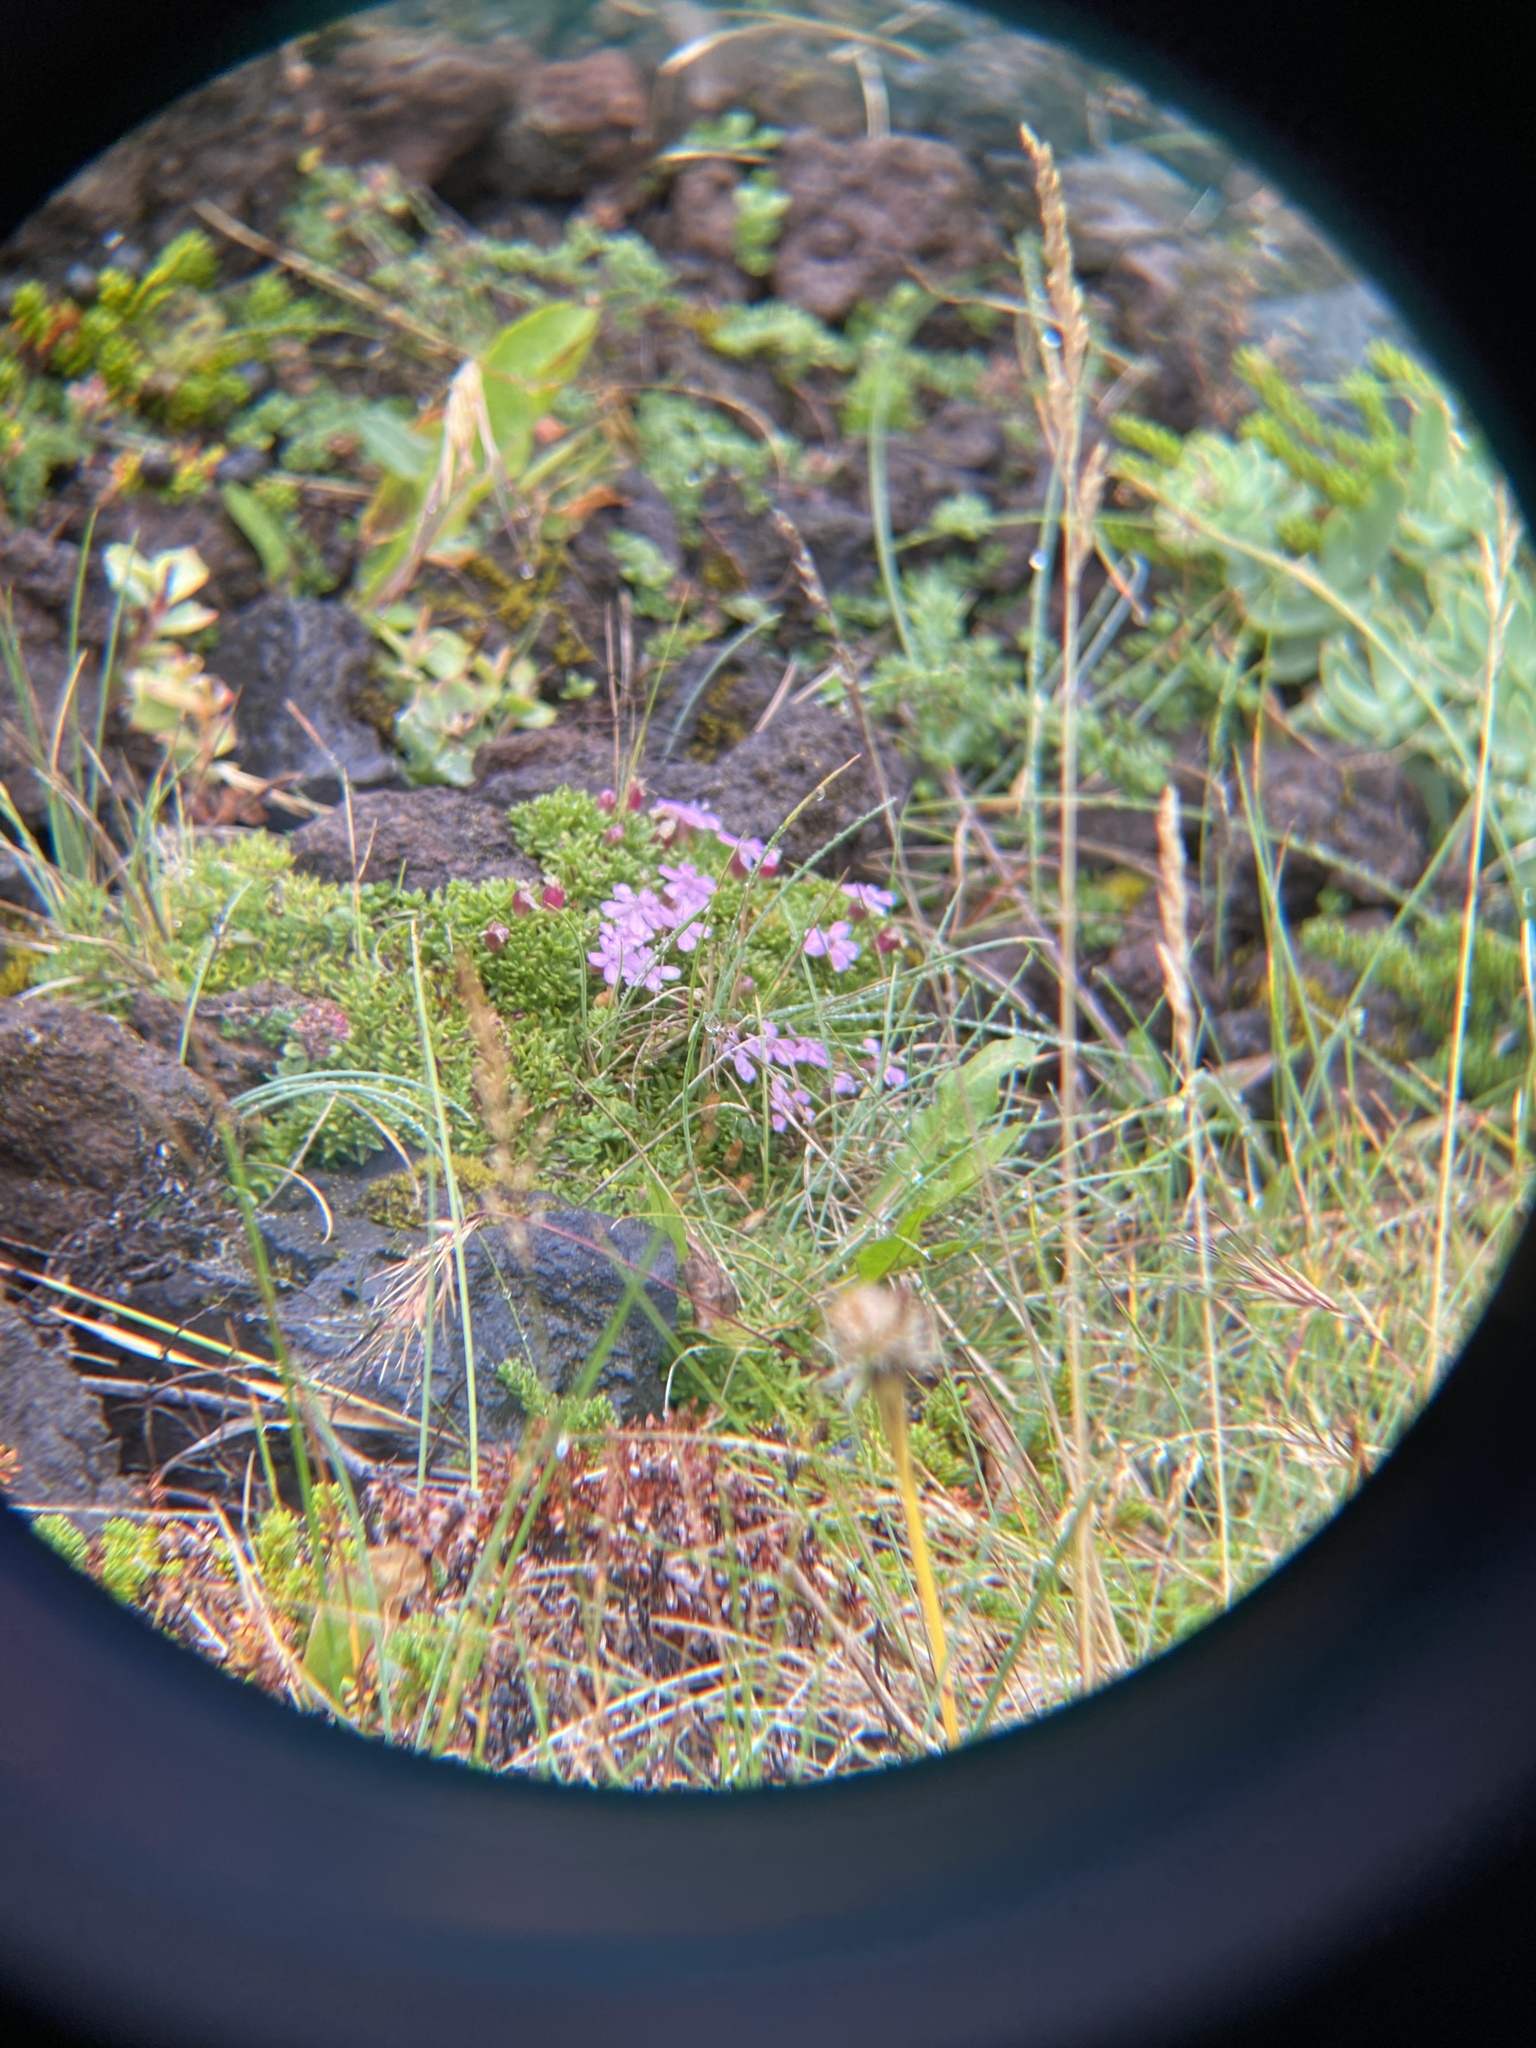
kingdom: Plantae
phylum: Tracheophyta
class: Magnoliopsida
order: Caryophyllales
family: Caryophyllaceae
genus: Silene
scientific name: Silene acaulis
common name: Moss campion
